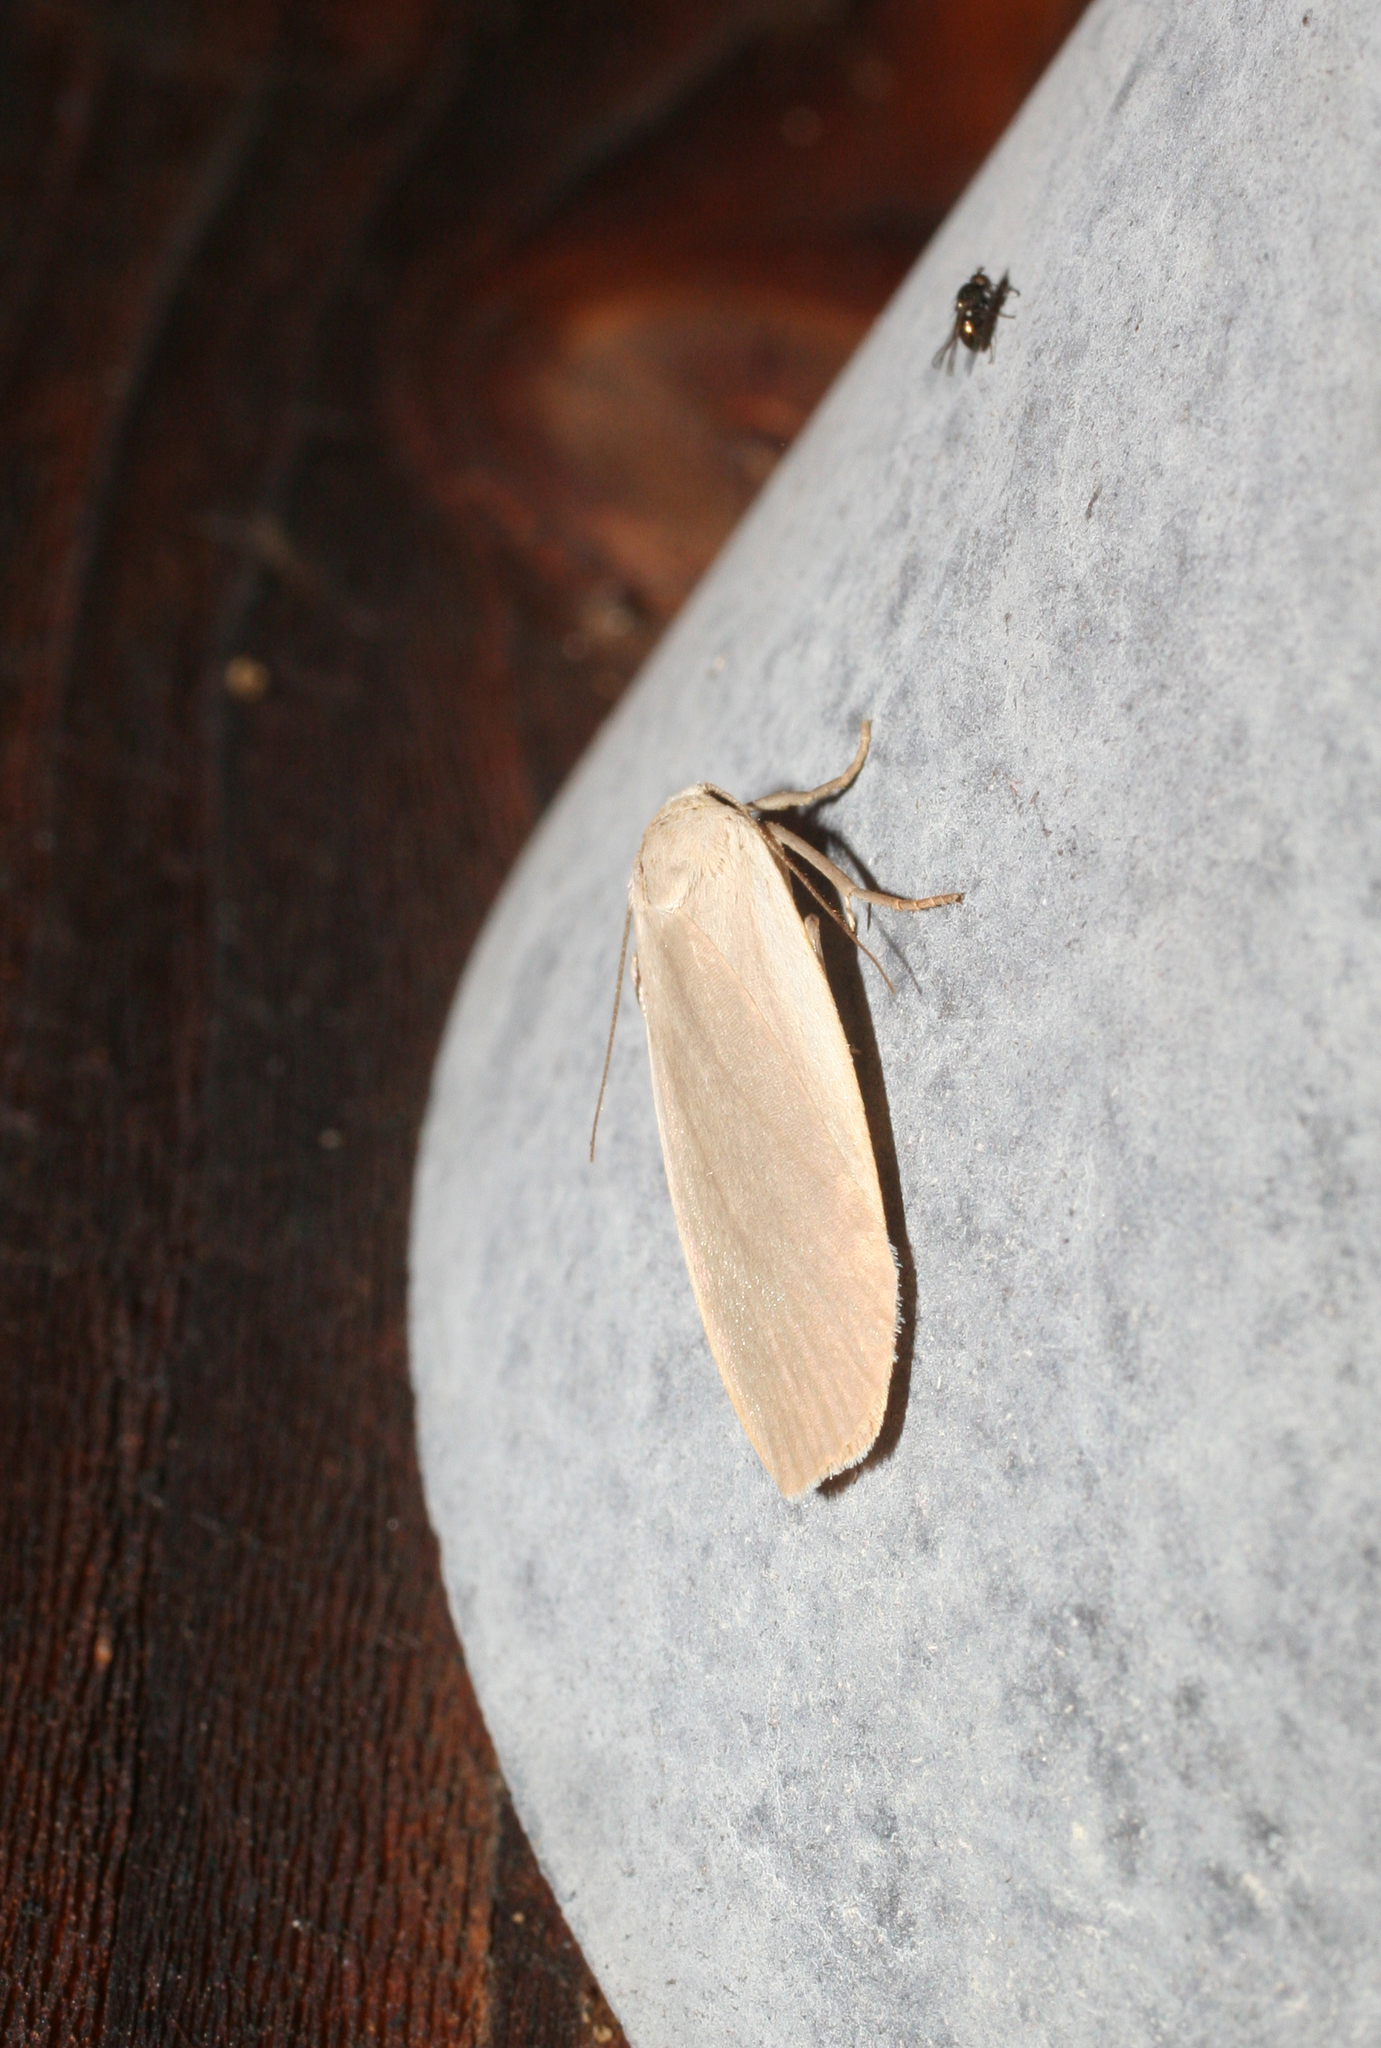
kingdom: Animalia
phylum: Arthropoda
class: Insecta
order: Lepidoptera
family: Erebidae
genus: Collita
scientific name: Collita griseola
